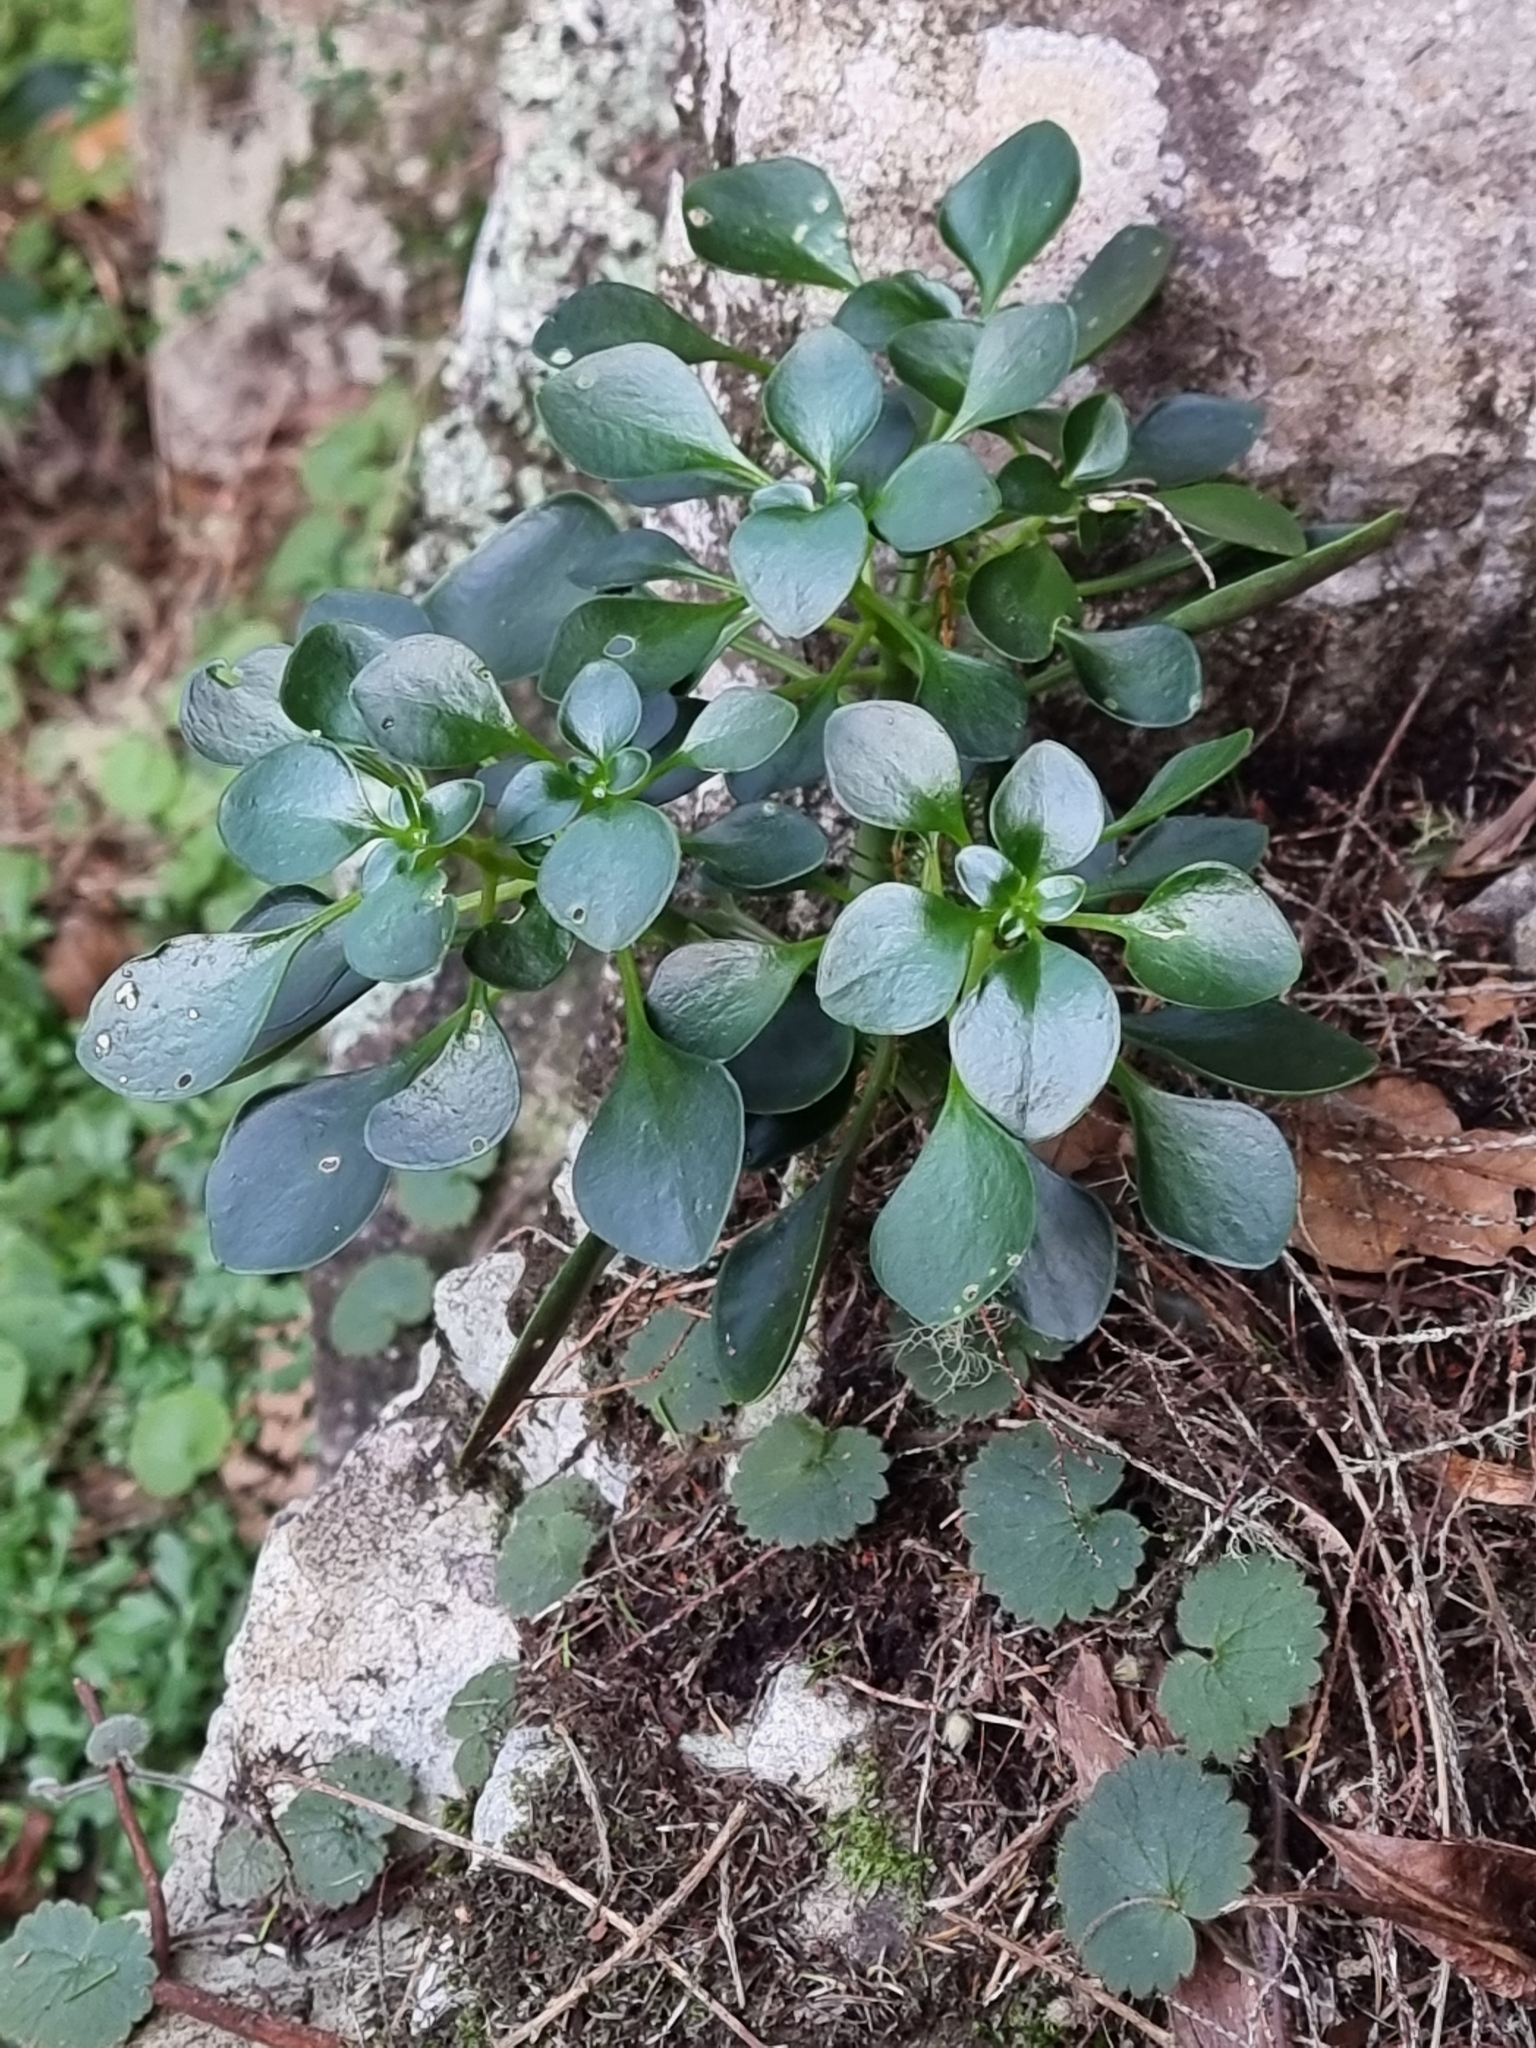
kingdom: Plantae
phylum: Tracheophyta
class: Magnoliopsida
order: Saxifragales
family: Crassulaceae
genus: Aichryson
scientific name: Aichryson divaricatum
